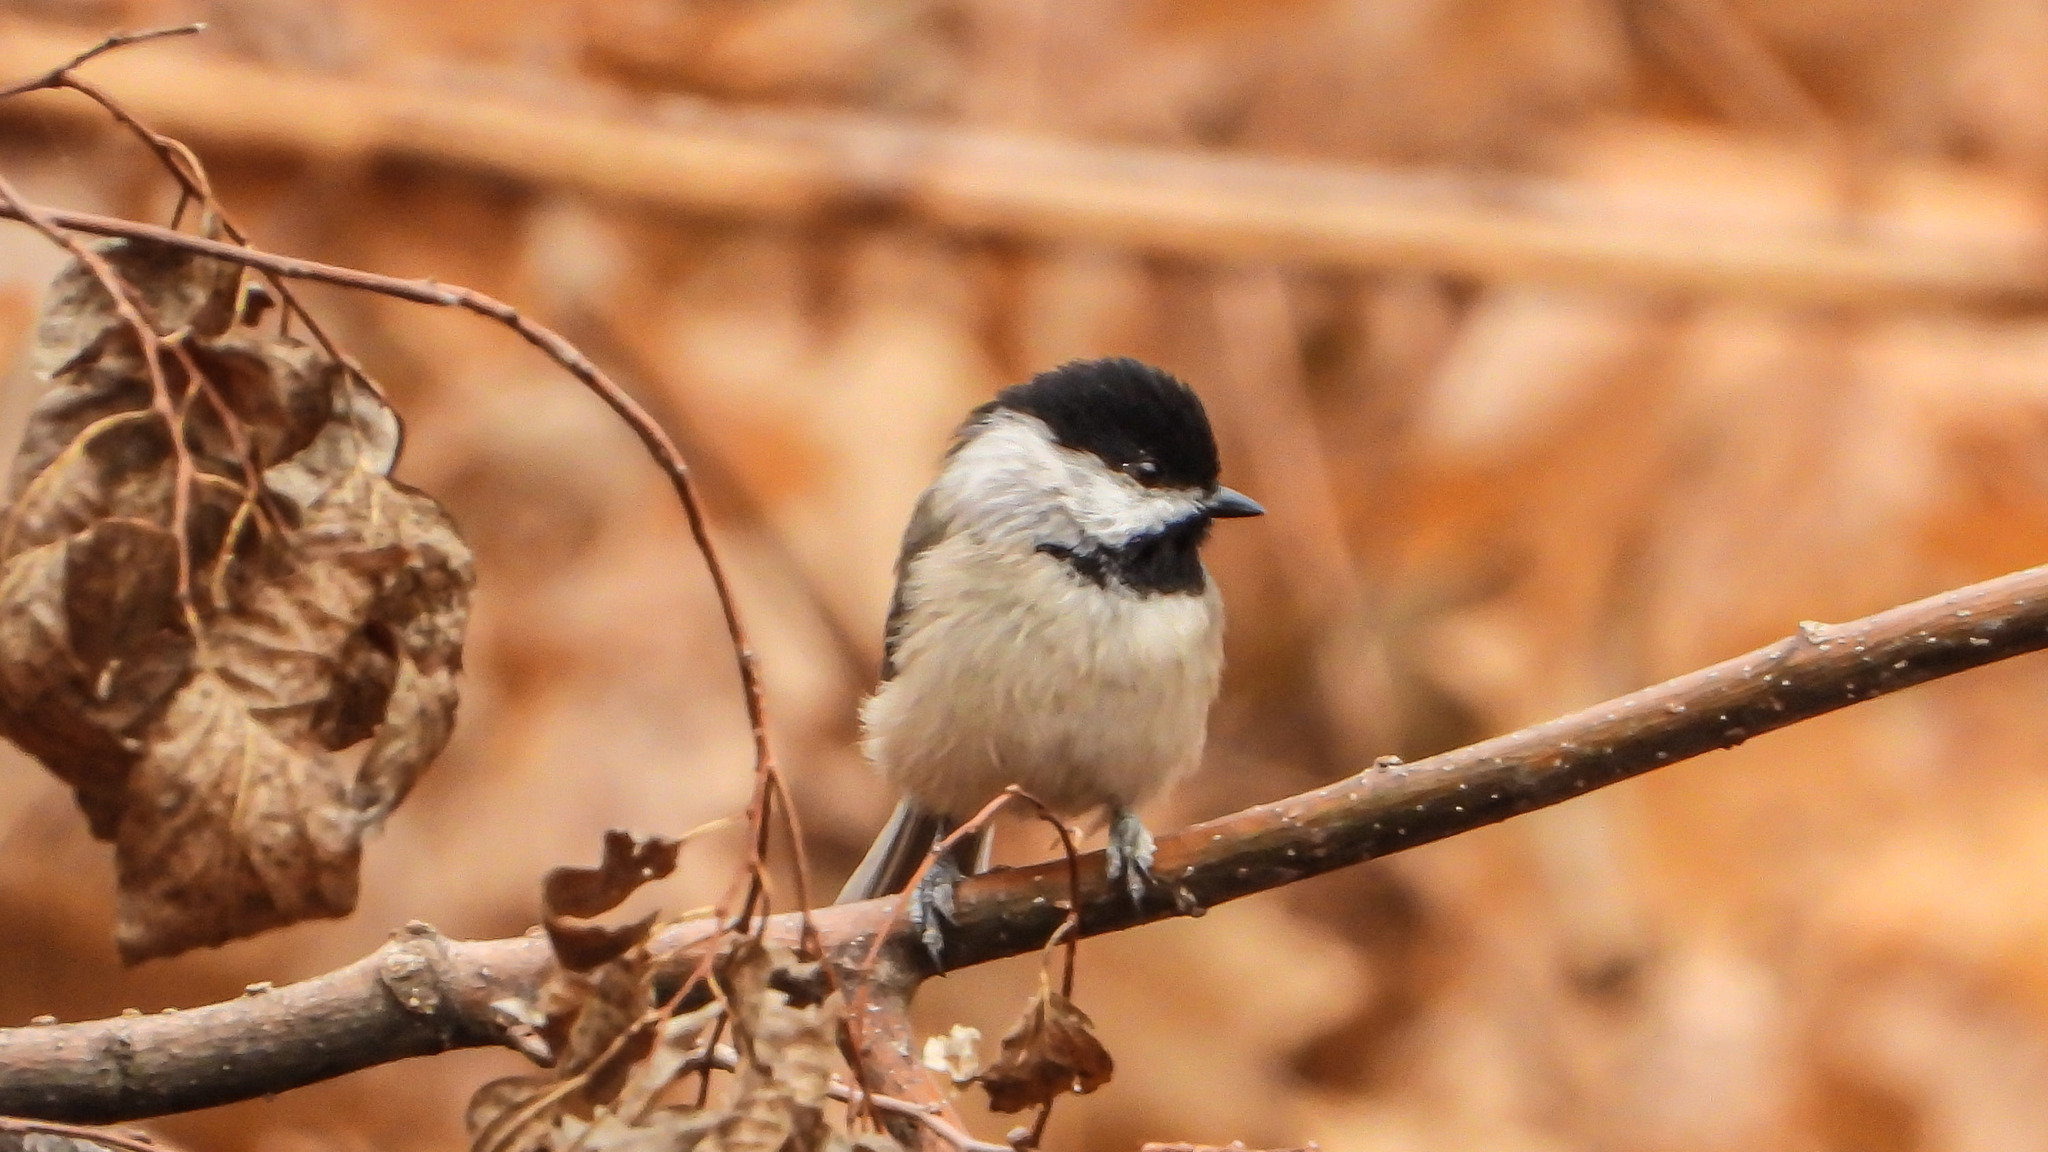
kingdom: Animalia
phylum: Chordata
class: Aves
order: Passeriformes
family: Paridae
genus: Poecile
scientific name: Poecile carolinensis
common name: Carolina chickadee
